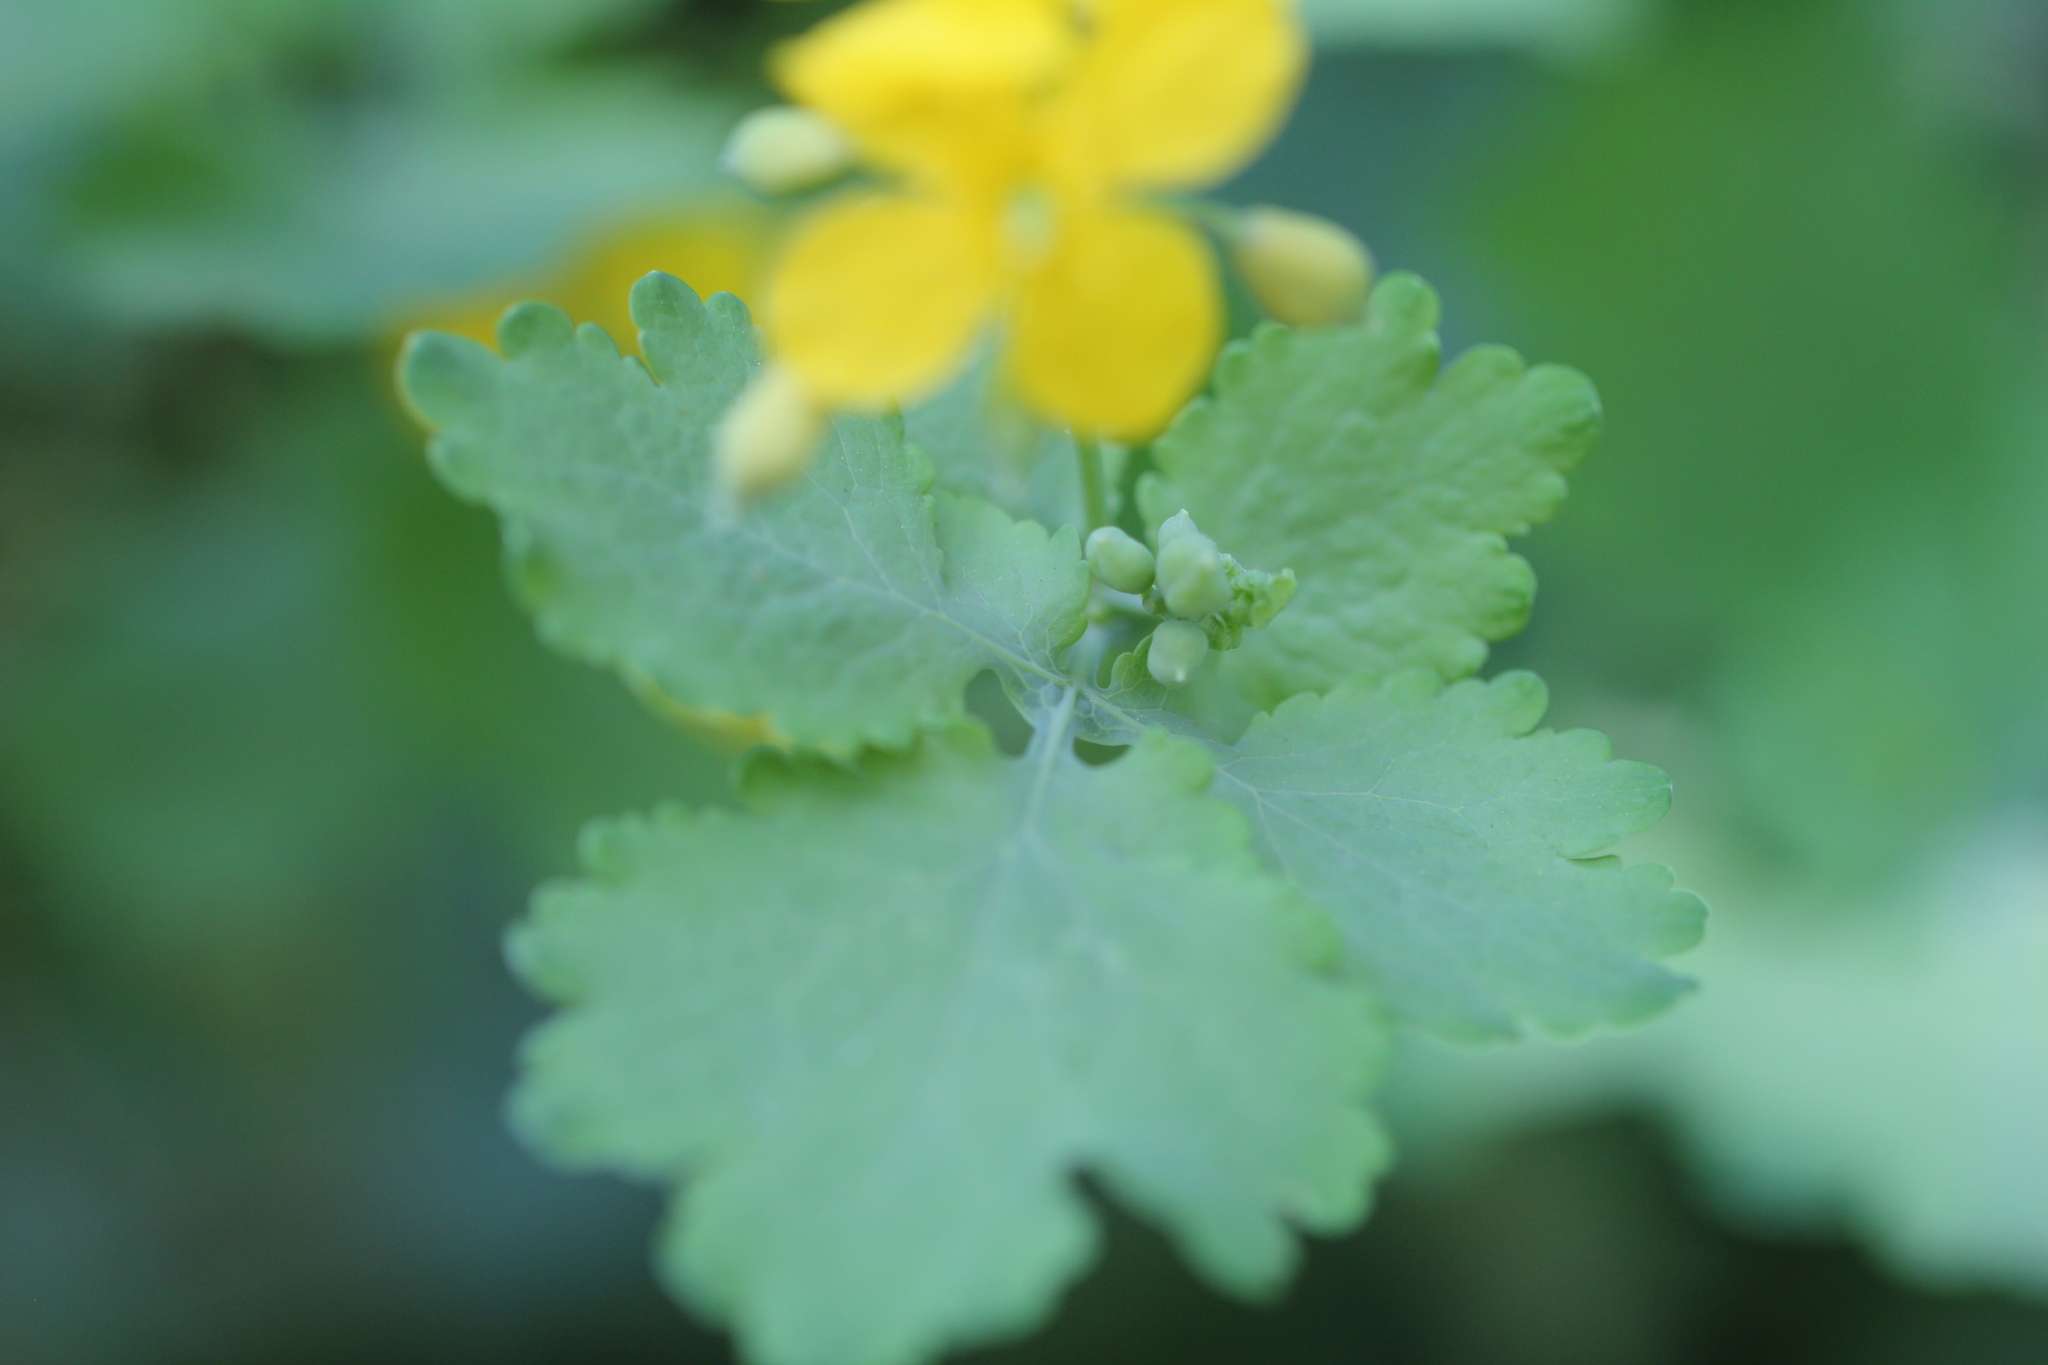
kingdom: Plantae
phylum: Tracheophyta
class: Magnoliopsida
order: Ranunculales
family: Papaveraceae
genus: Chelidonium
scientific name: Chelidonium majus
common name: Greater celandine
